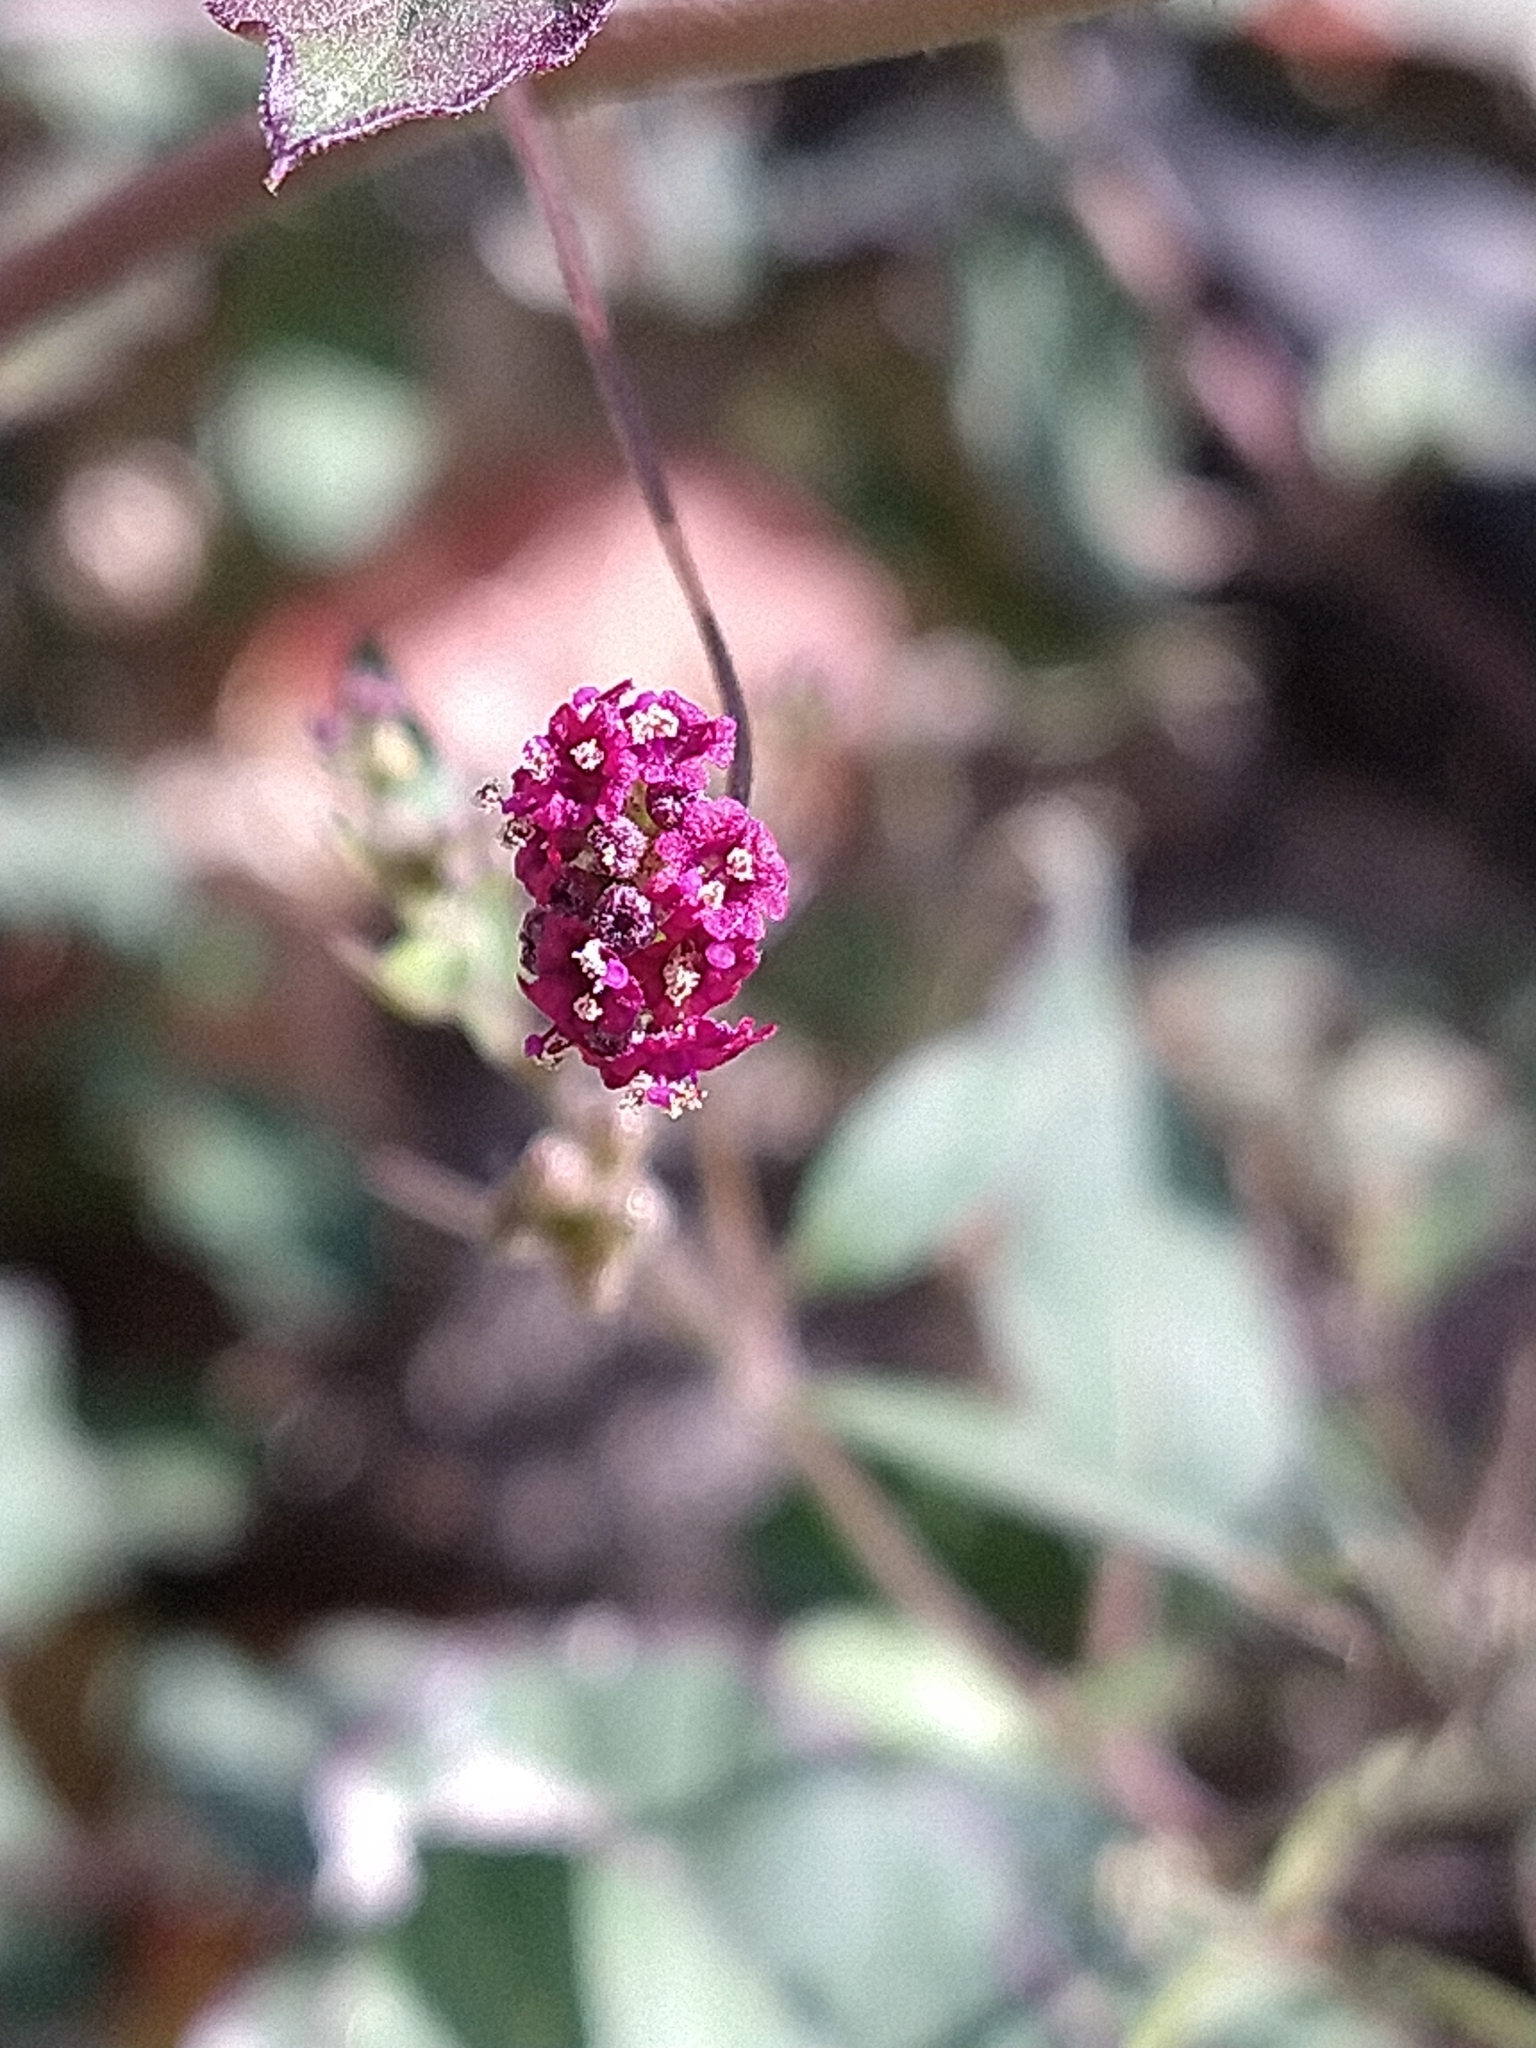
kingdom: Plantae
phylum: Tracheophyta
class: Magnoliopsida
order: Caryophyllales
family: Nyctaginaceae
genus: Boerhavia
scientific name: Boerhavia coccinea
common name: Scarlet spiderling
